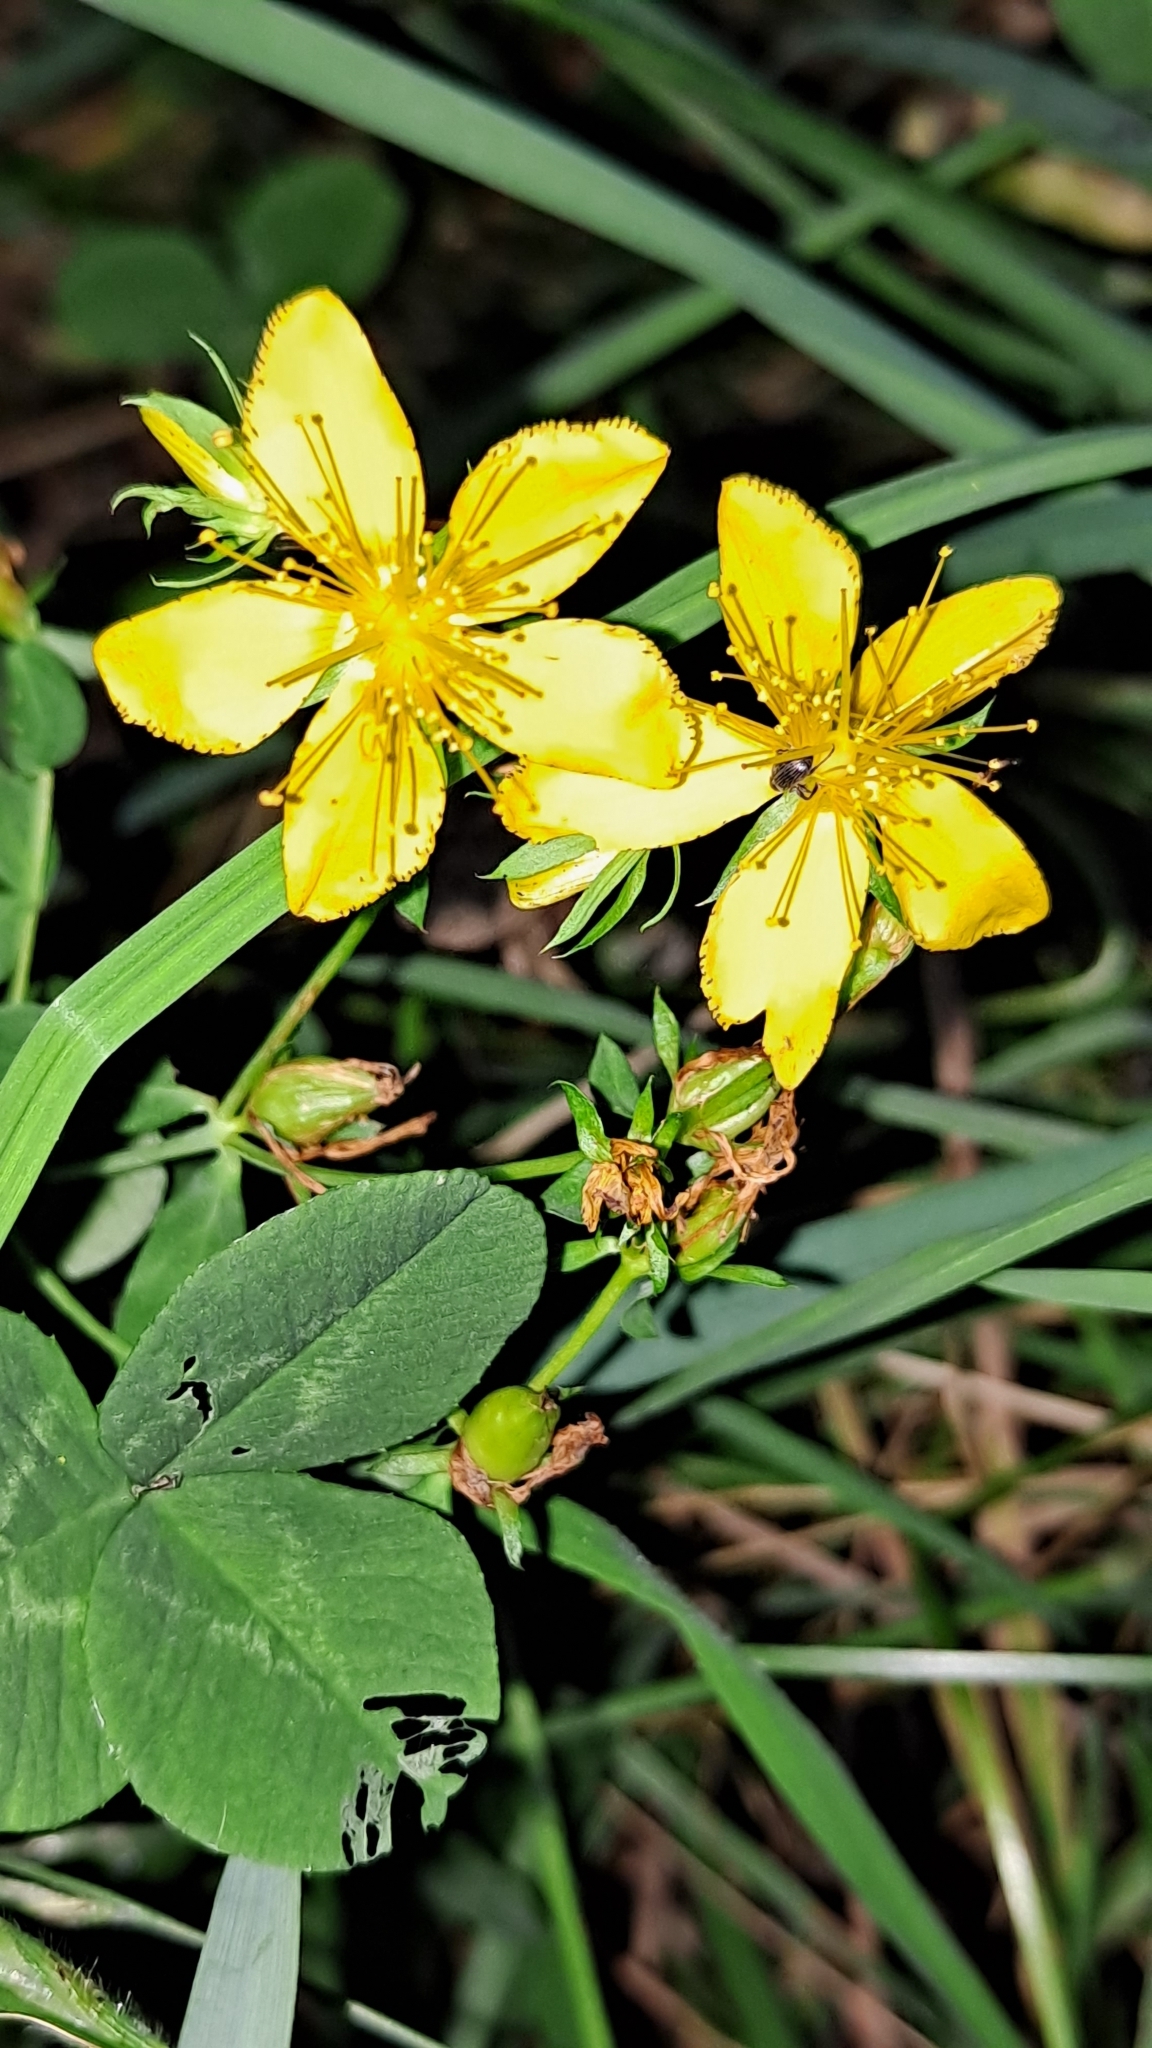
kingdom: Plantae
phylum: Tracheophyta
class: Magnoliopsida
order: Malpighiales
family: Hypericaceae
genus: Hypericum
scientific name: Hypericum perforatum
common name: Common st. johnswort
